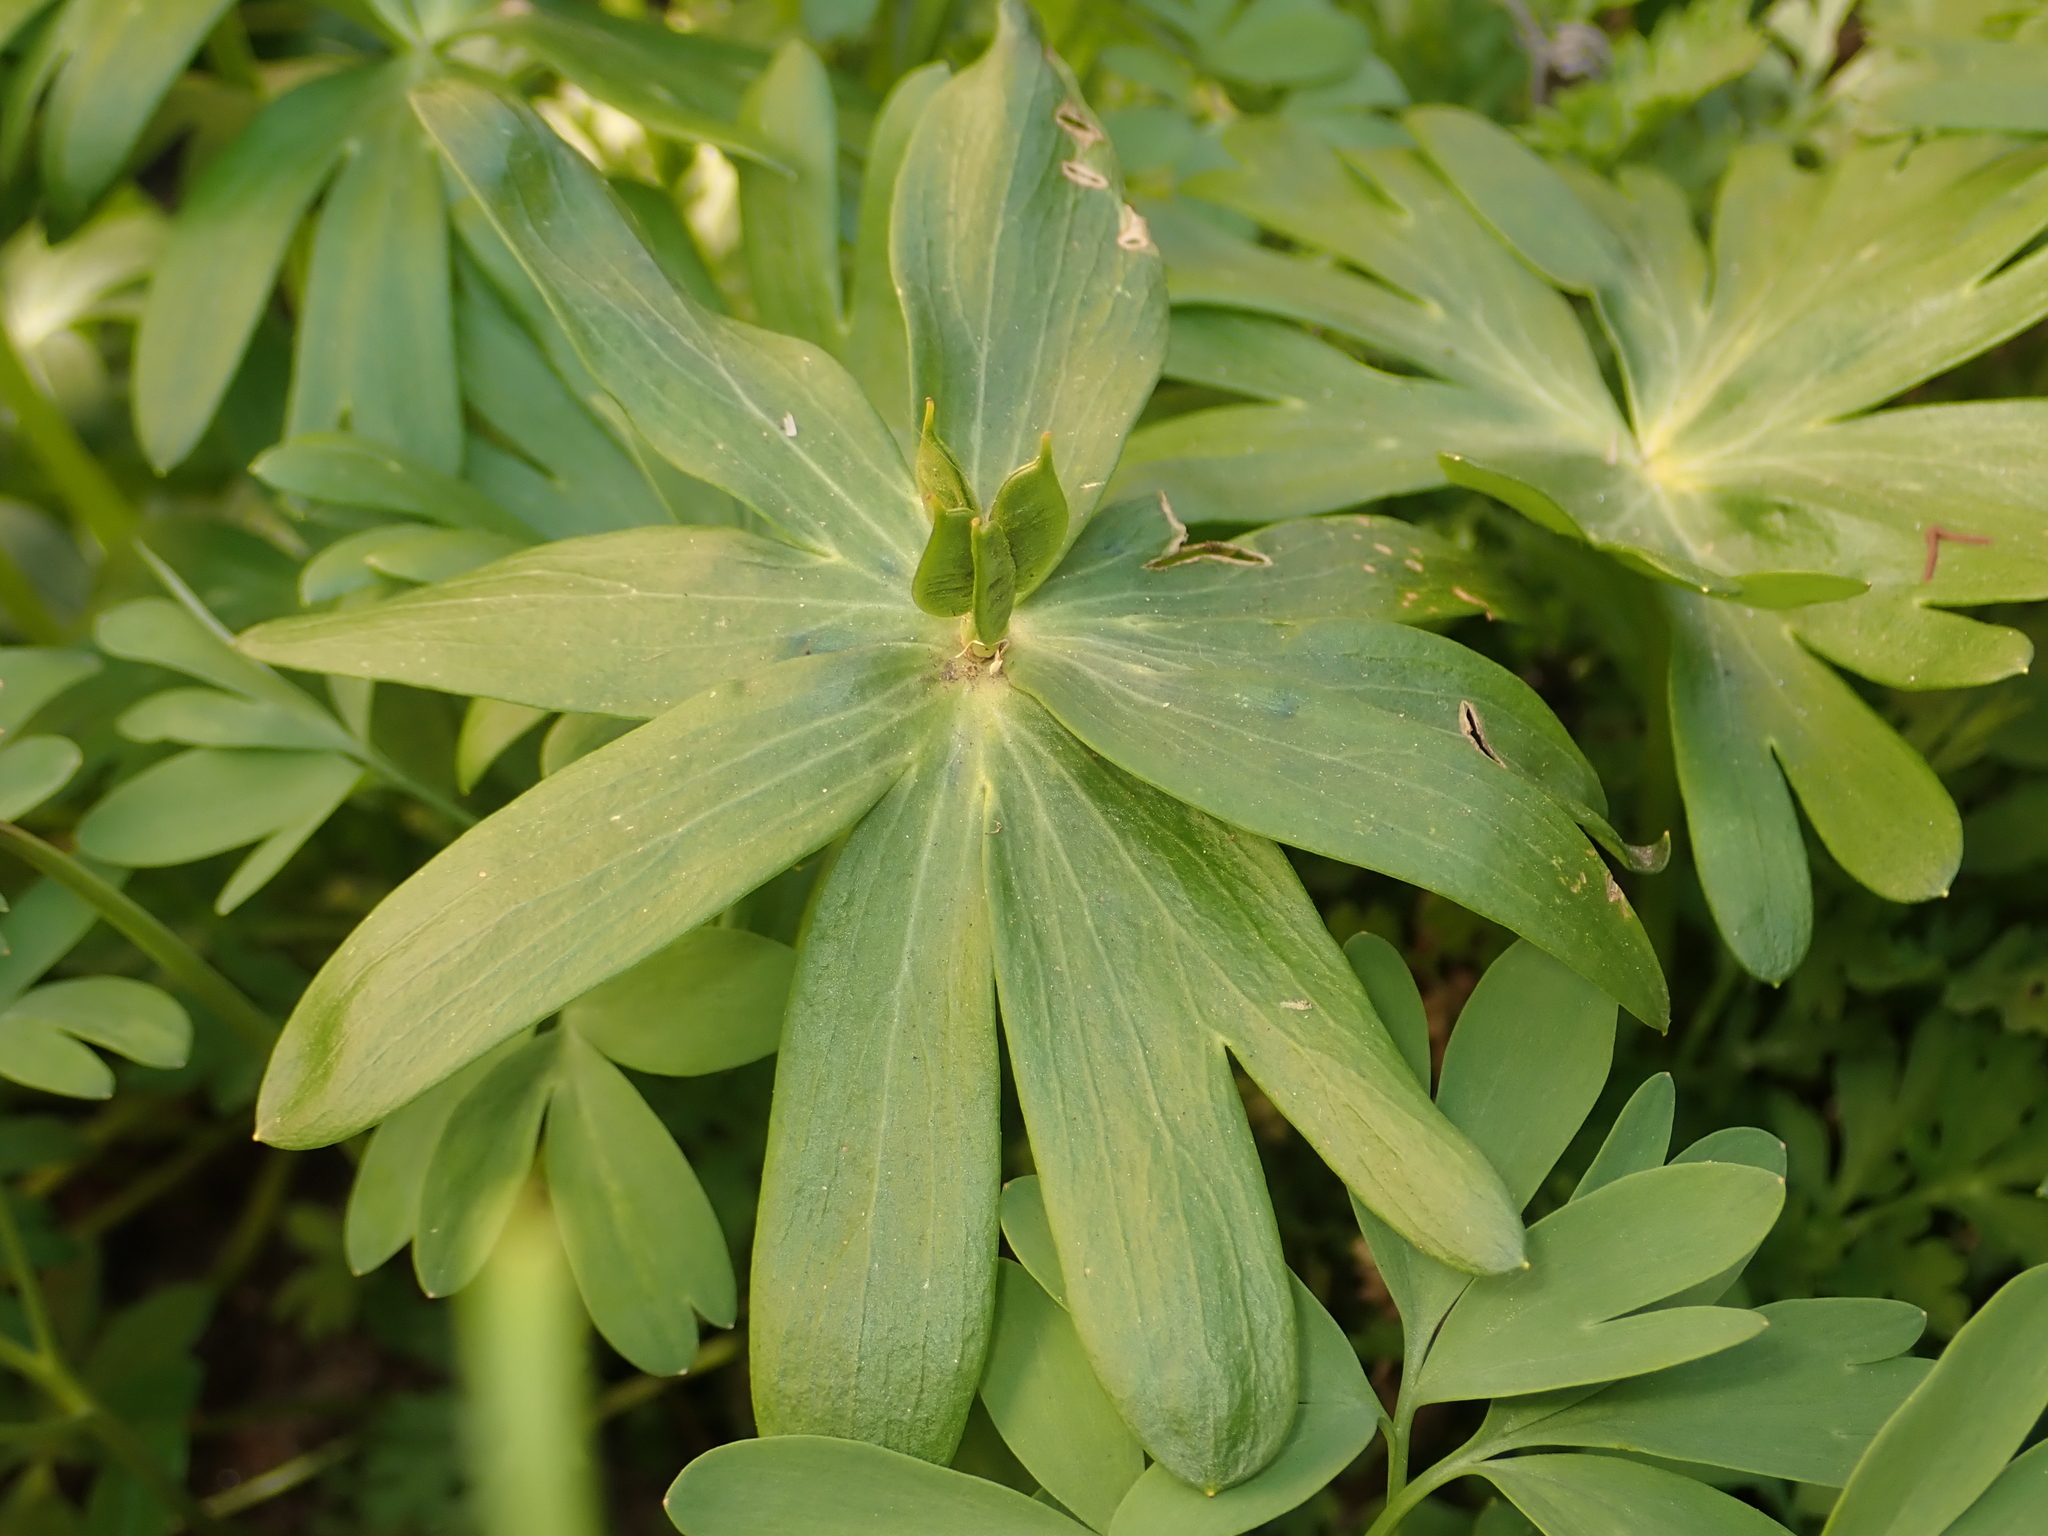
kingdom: Plantae
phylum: Tracheophyta
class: Magnoliopsida
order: Ranunculales
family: Ranunculaceae
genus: Eranthis
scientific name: Eranthis hyemalis
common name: Winter aconite
